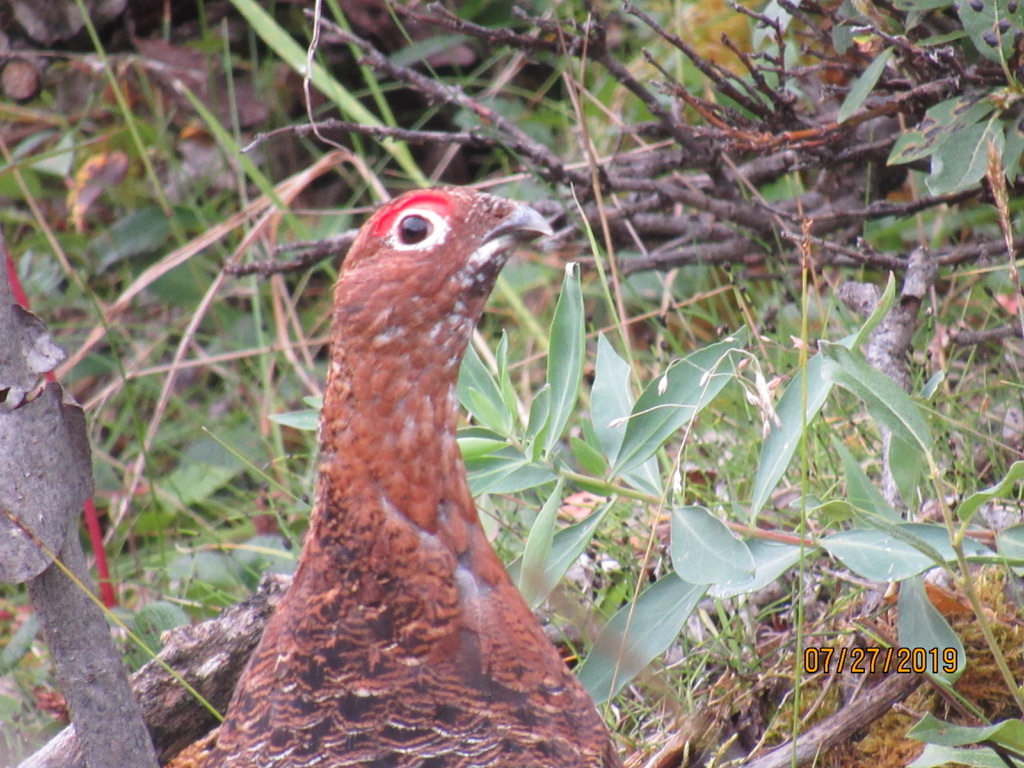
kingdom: Animalia
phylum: Chordata
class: Aves
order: Galliformes
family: Phasianidae
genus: Lagopus
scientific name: Lagopus lagopus
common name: Willow ptarmigan
